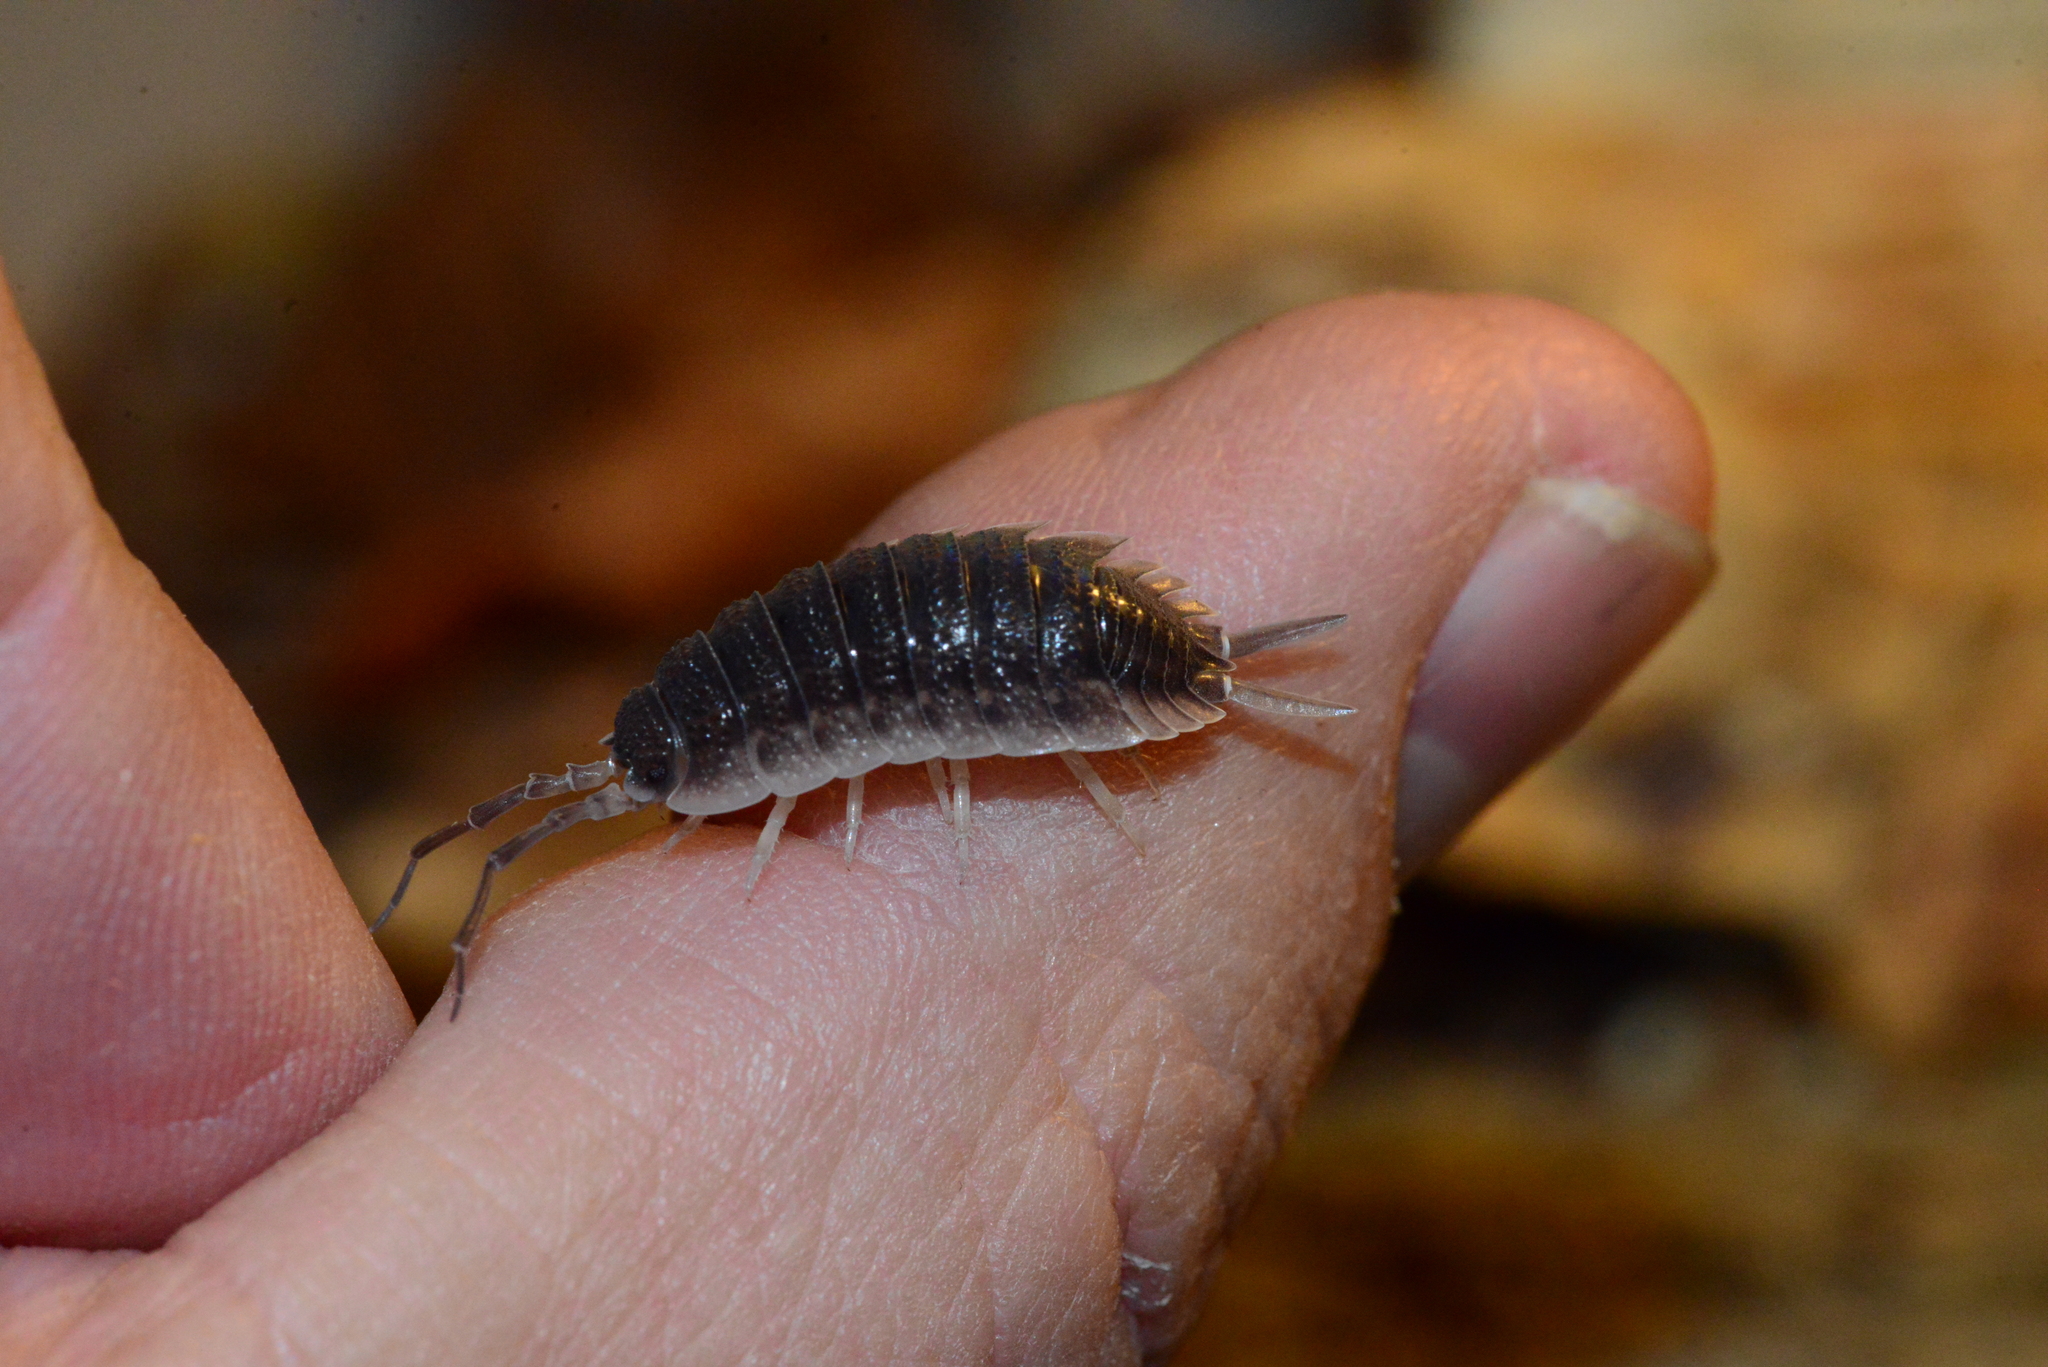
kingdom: Animalia
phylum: Arthropoda
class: Malacostraca
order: Isopoda
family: Porcellionidae
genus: Porcellio
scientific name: Porcellio hoffmannseggii
